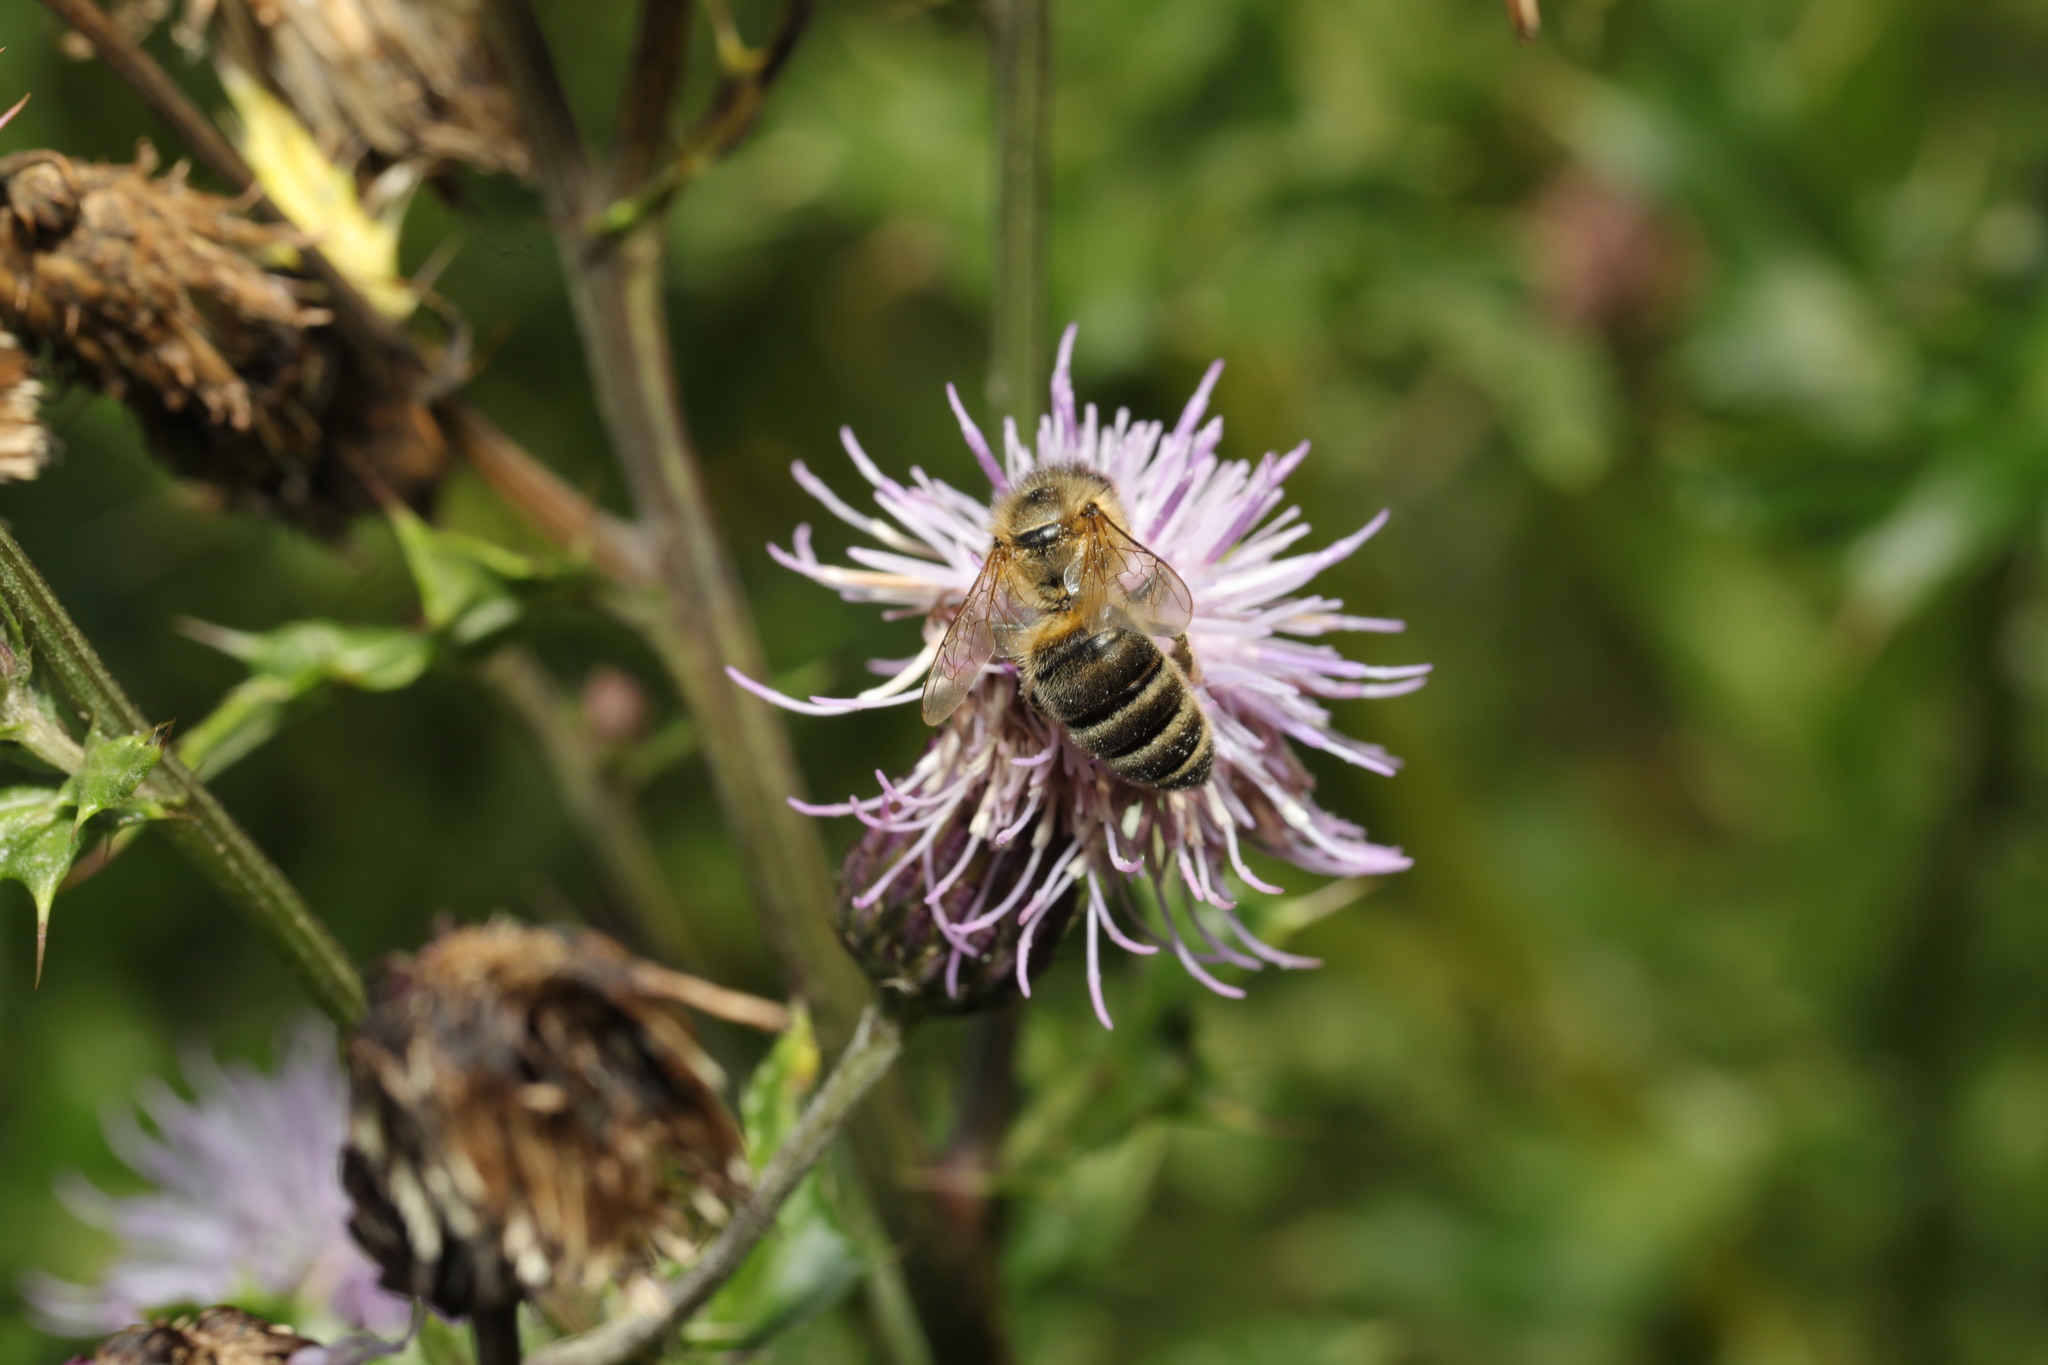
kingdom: Animalia
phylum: Arthropoda
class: Insecta
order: Hymenoptera
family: Apidae
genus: Apis
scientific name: Apis mellifera
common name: Honey bee
